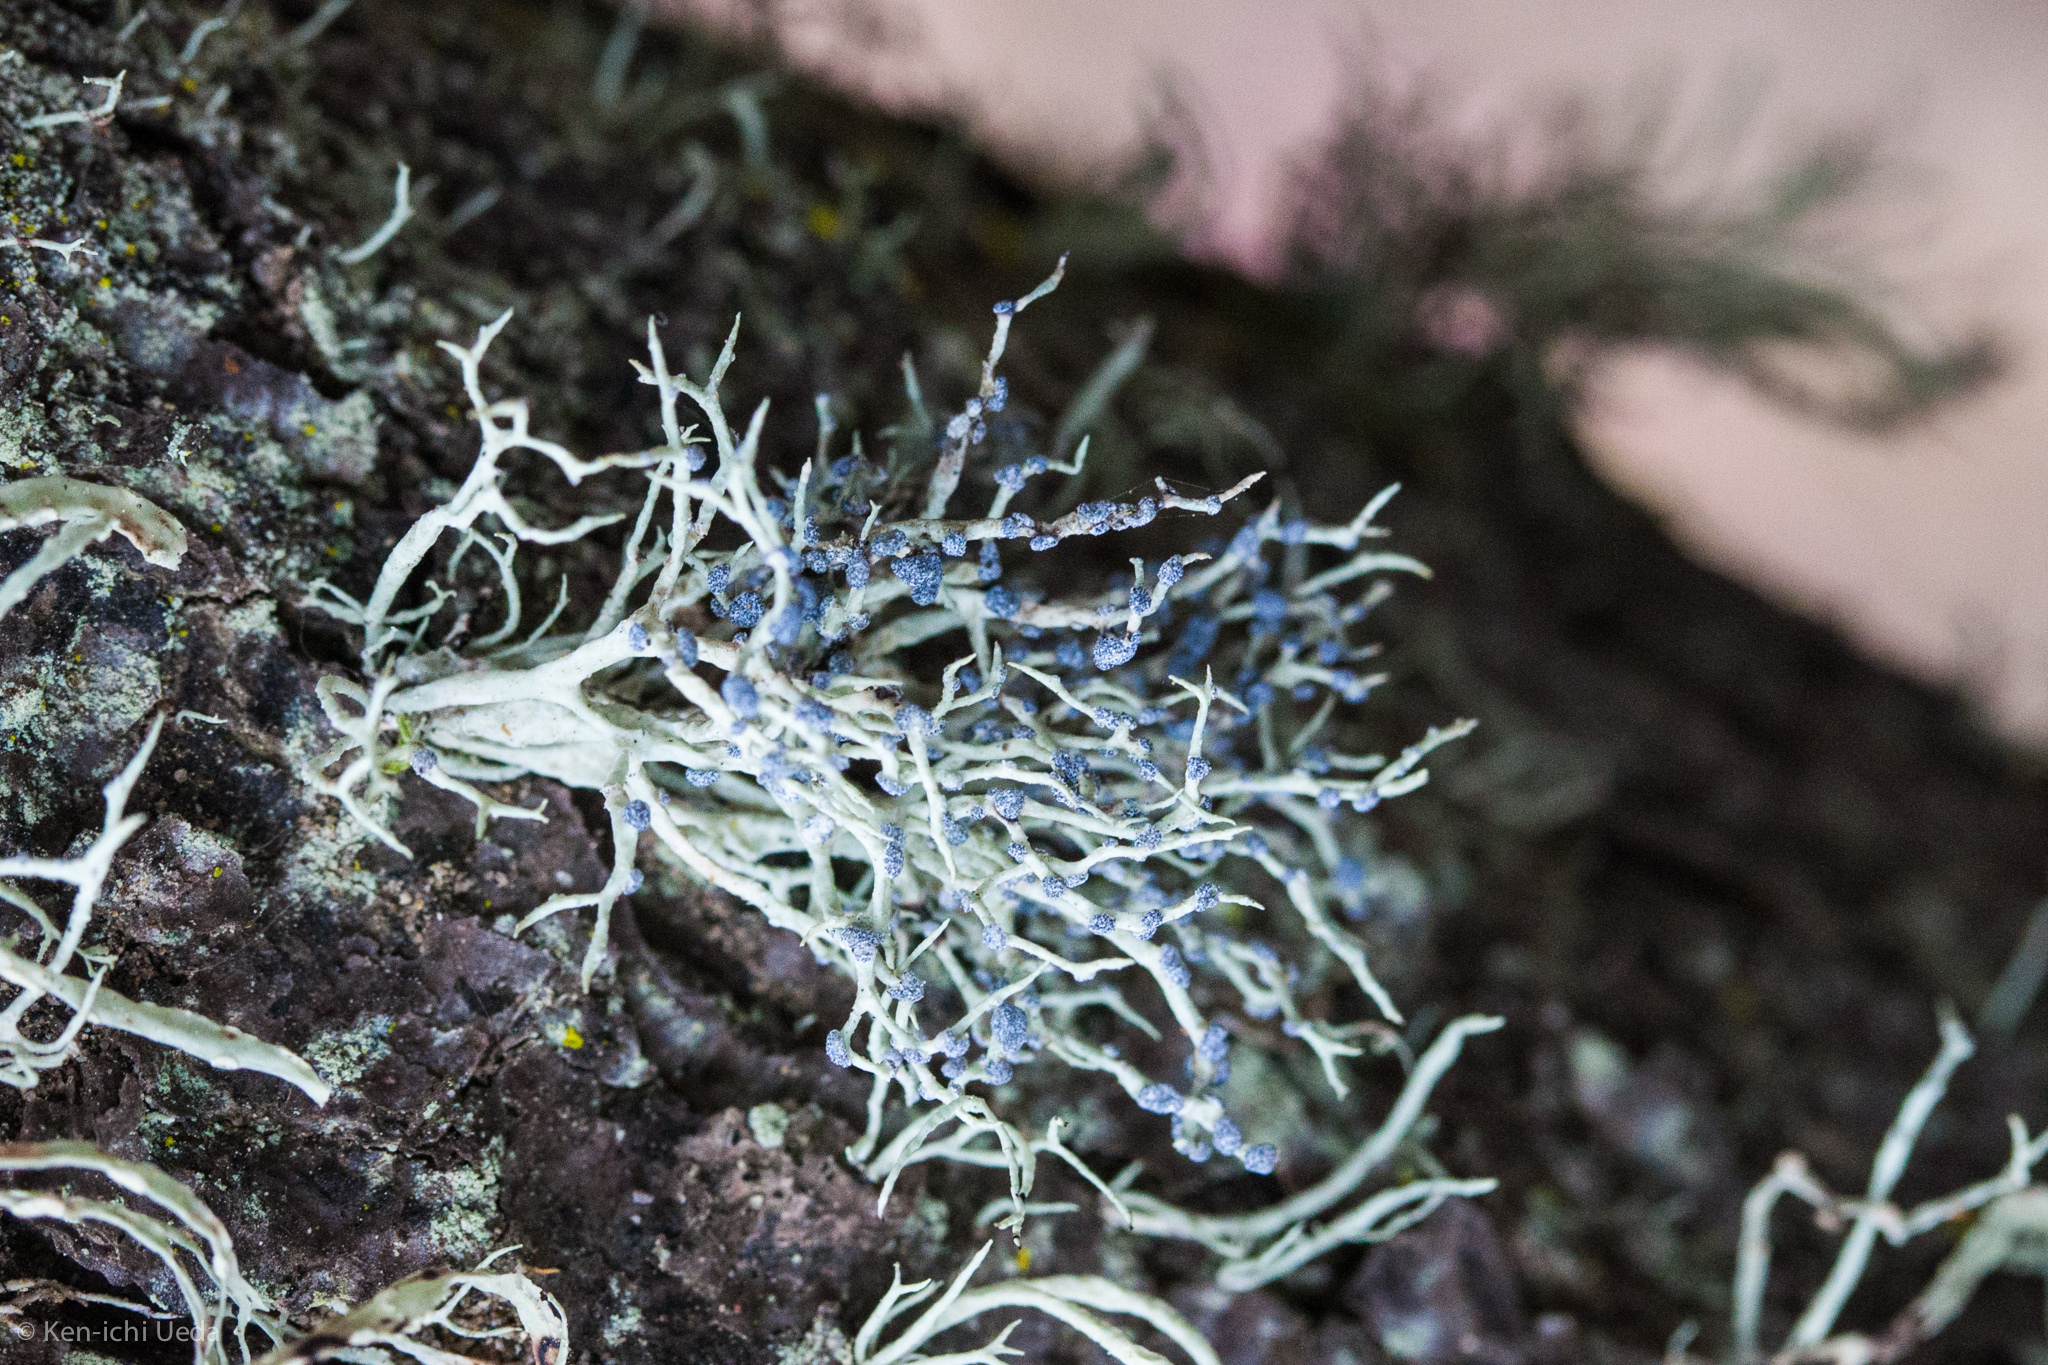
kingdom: Fungi
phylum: Ascomycota
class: Lecanoromycetes
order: Lecanorales
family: Ramalinaceae
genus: Niebla
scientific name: Niebla cephalota
